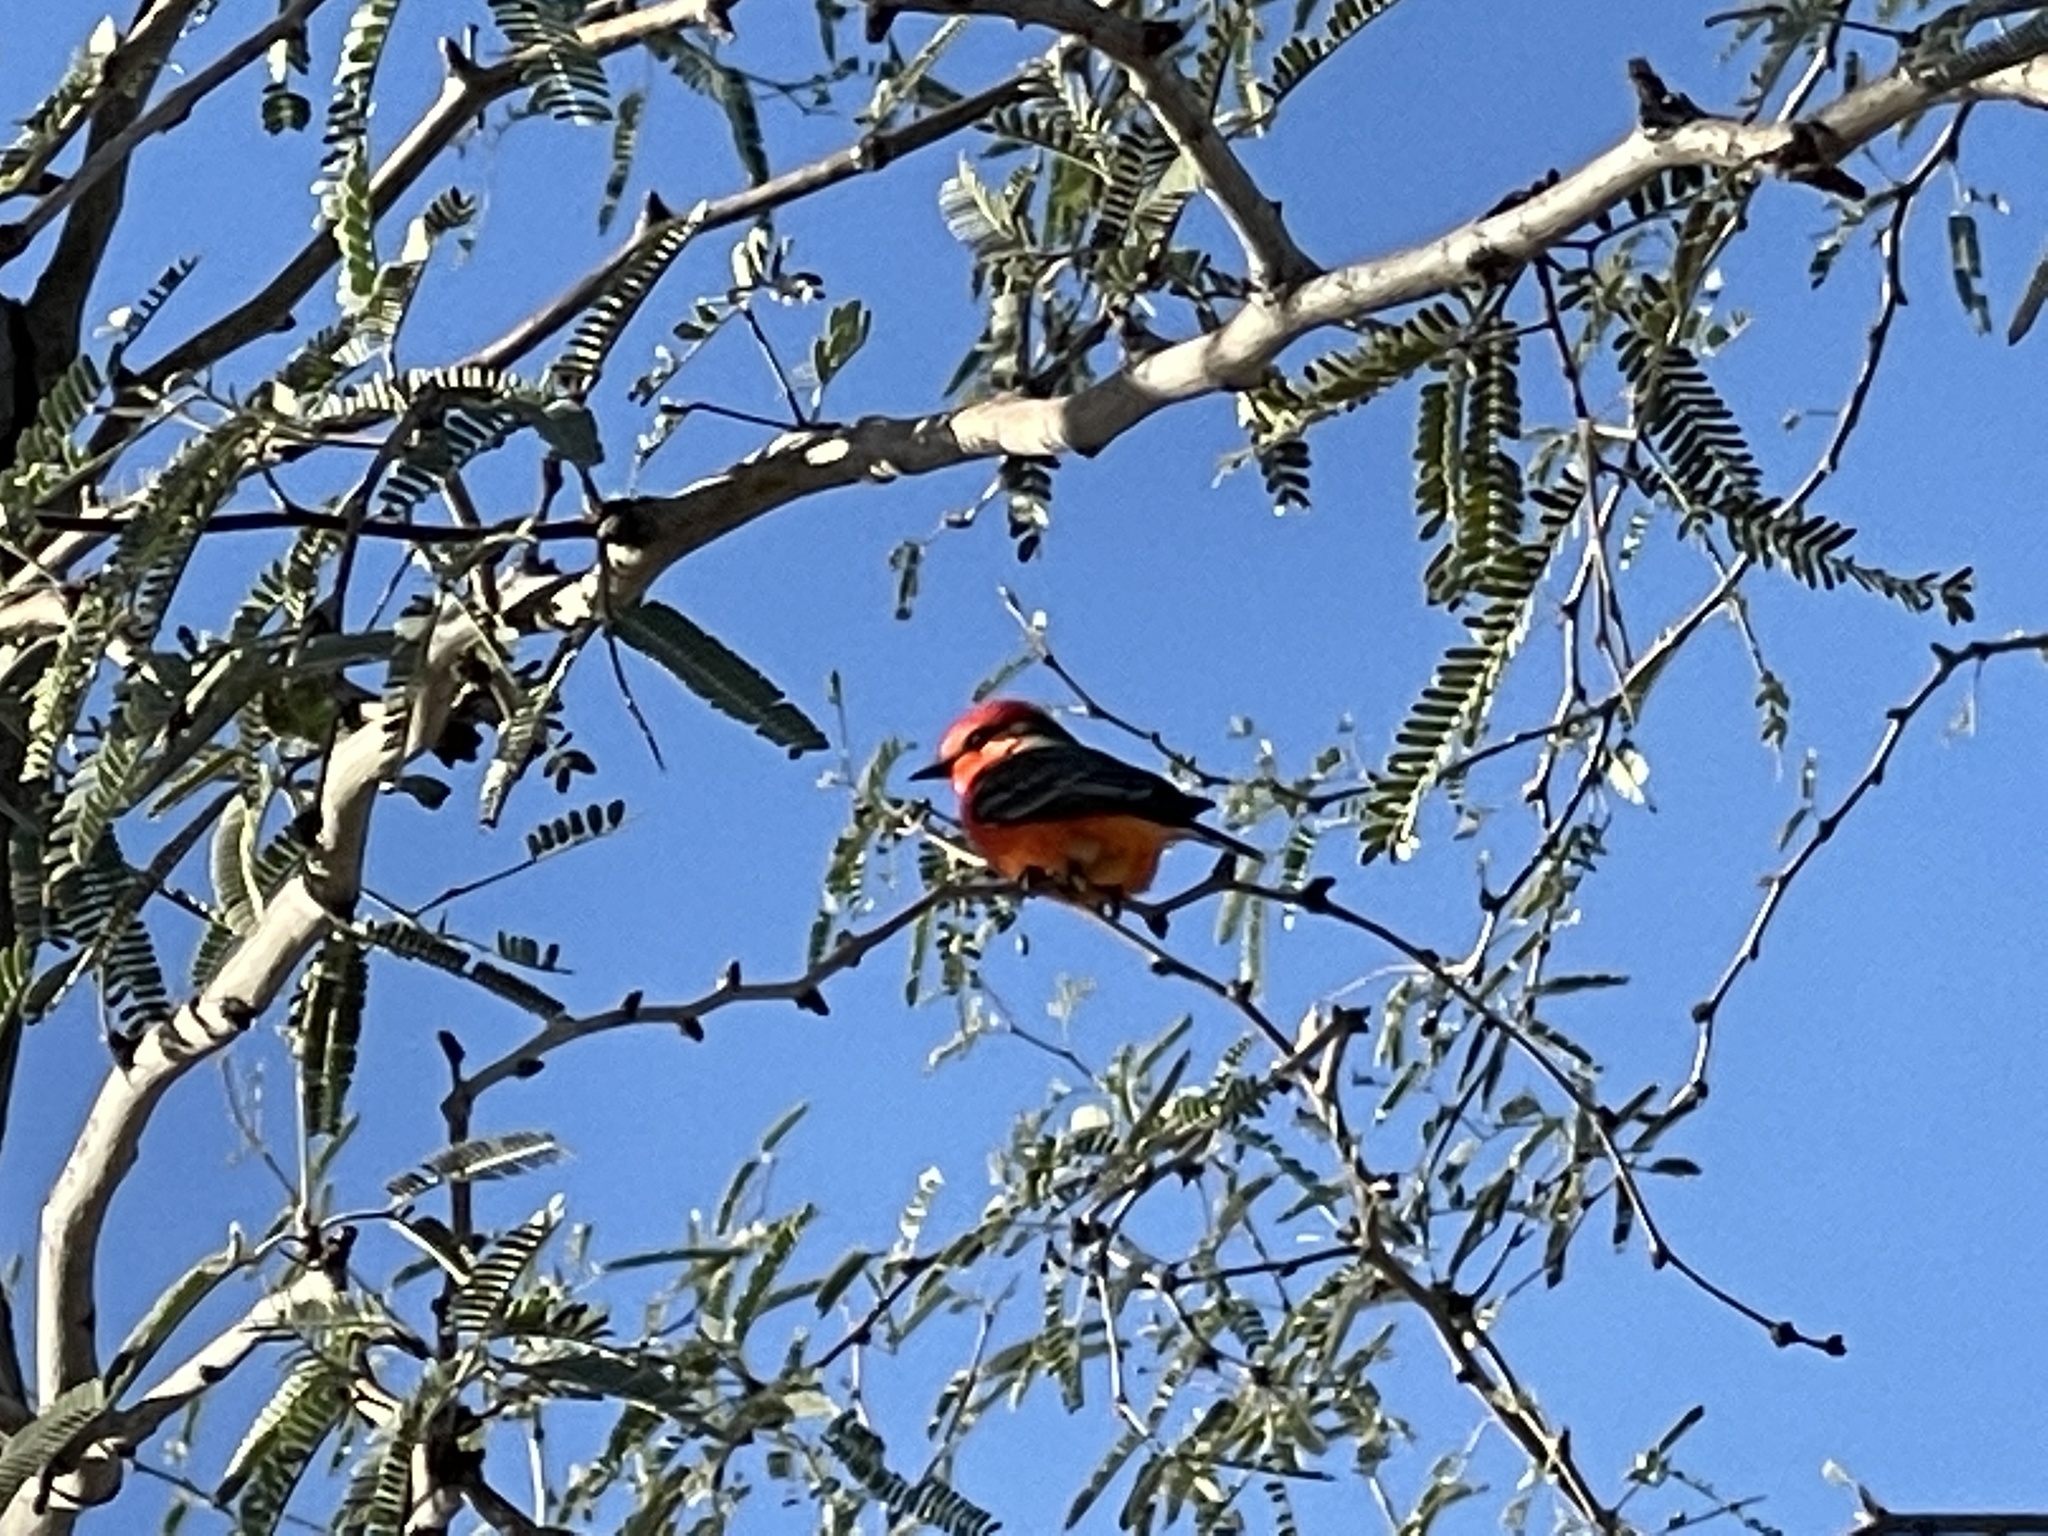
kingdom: Animalia
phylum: Chordata
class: Aves
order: Passeriformes
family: Tyrannidae
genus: Pyrocephalus
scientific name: Pyrocephalus rubinus
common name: Vermilion flycatcher
